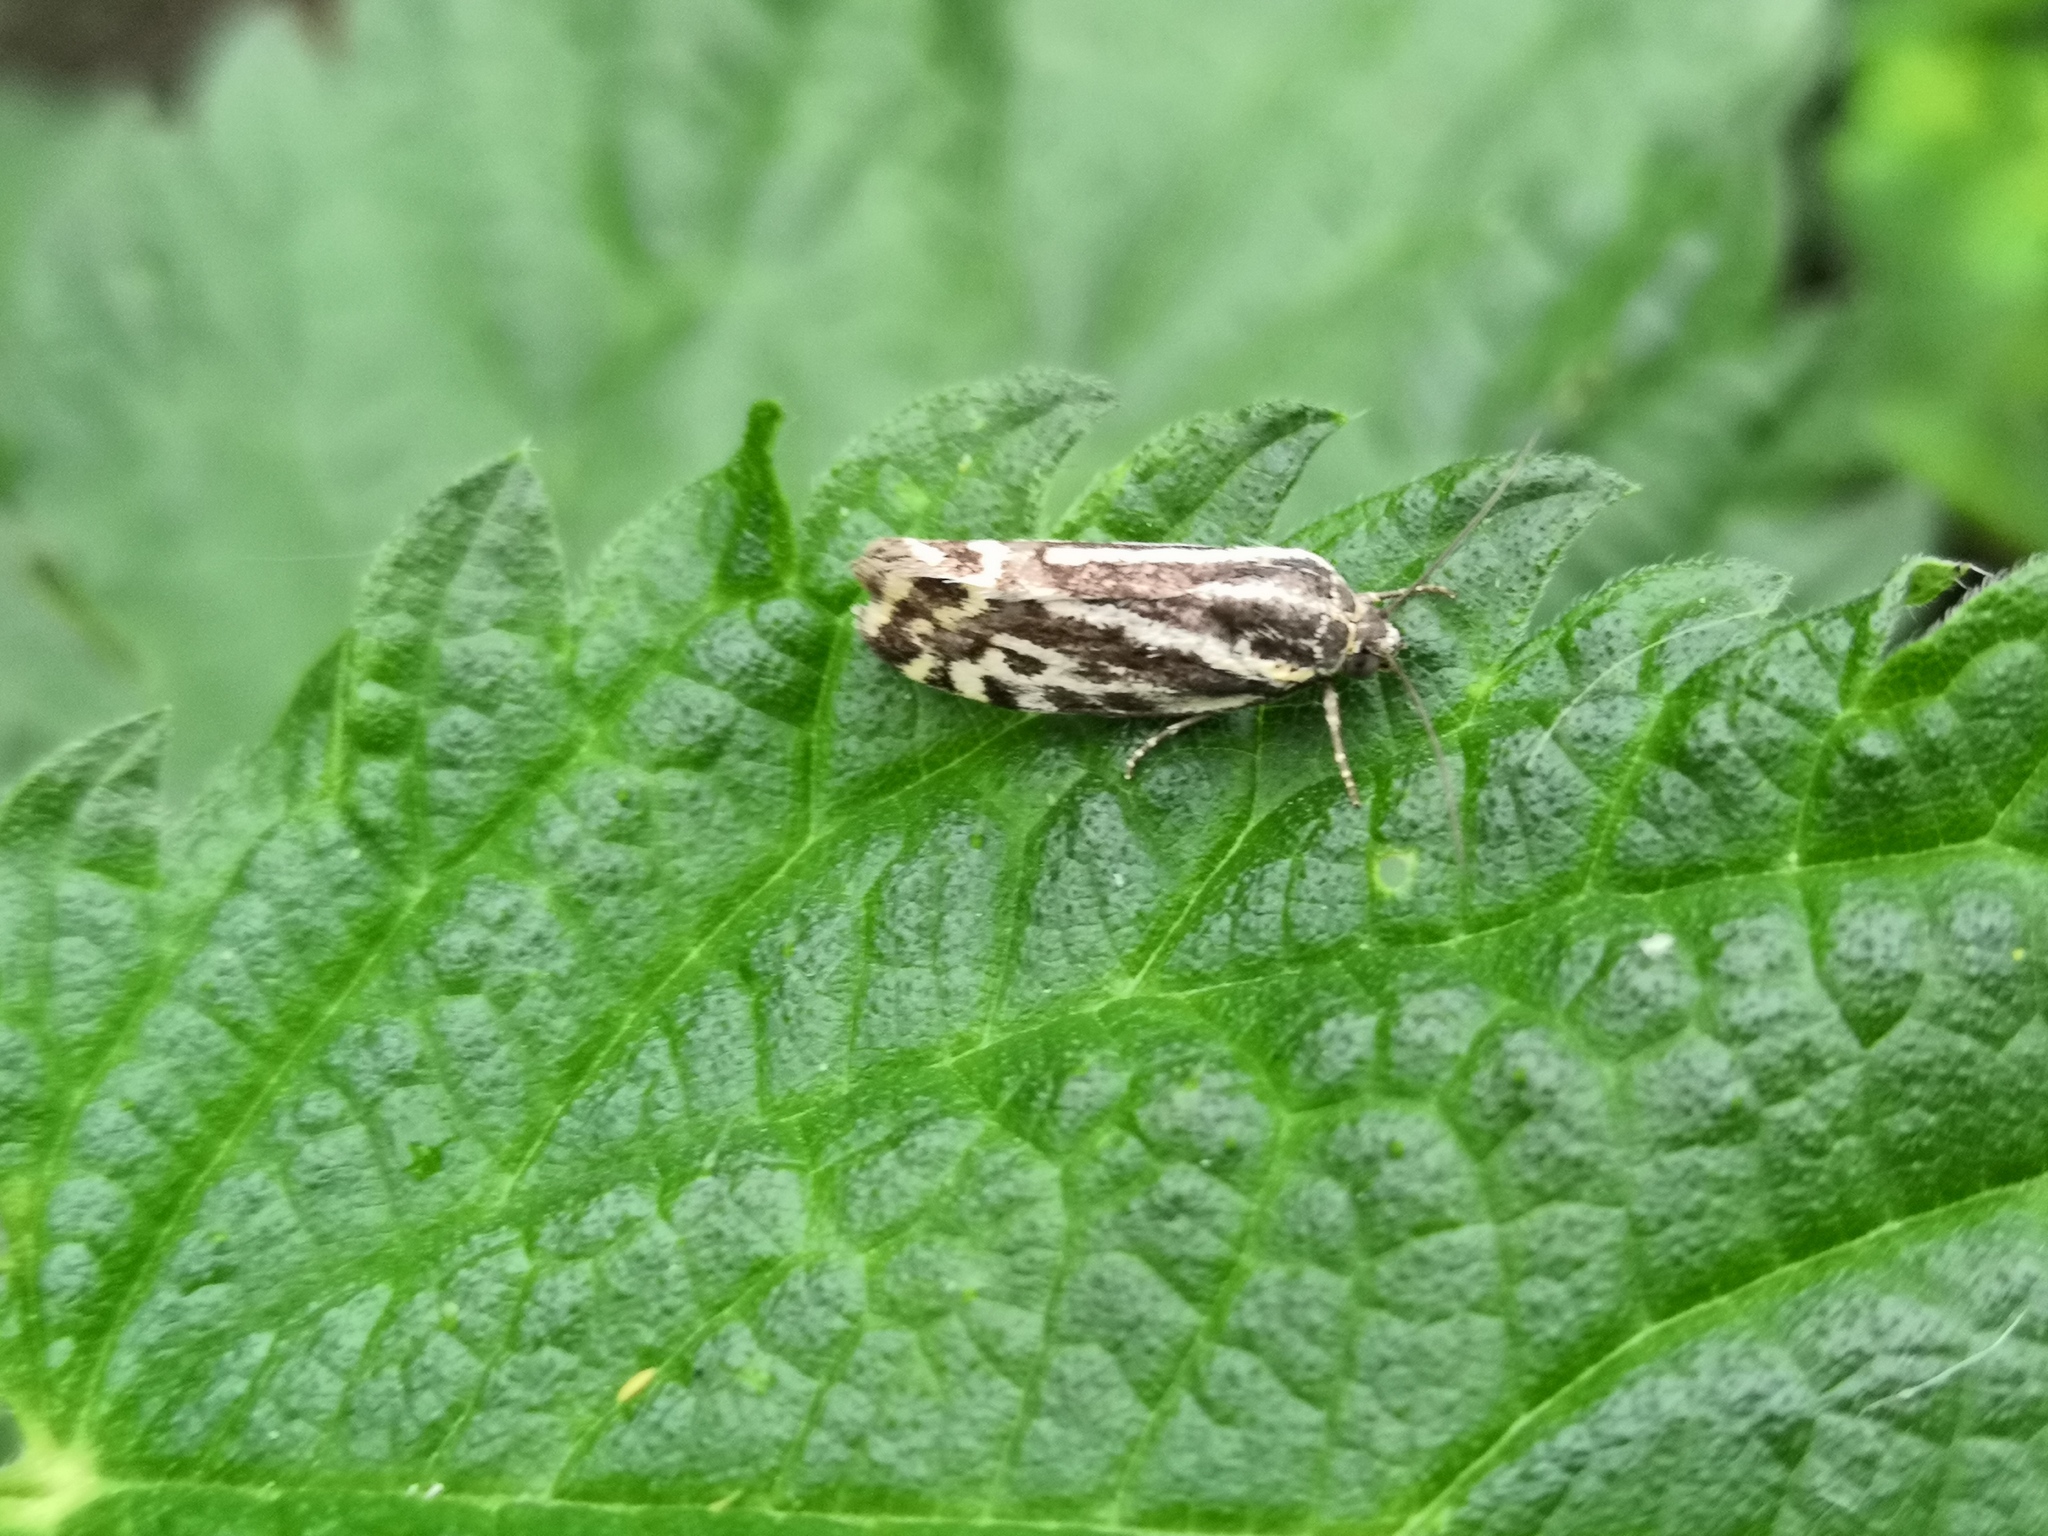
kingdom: Animalia
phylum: Arthropoda
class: Insecta
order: Lepidoptera
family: Noctuidae
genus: Acontia
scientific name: Acontia trabealis
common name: Spotted sulphur
